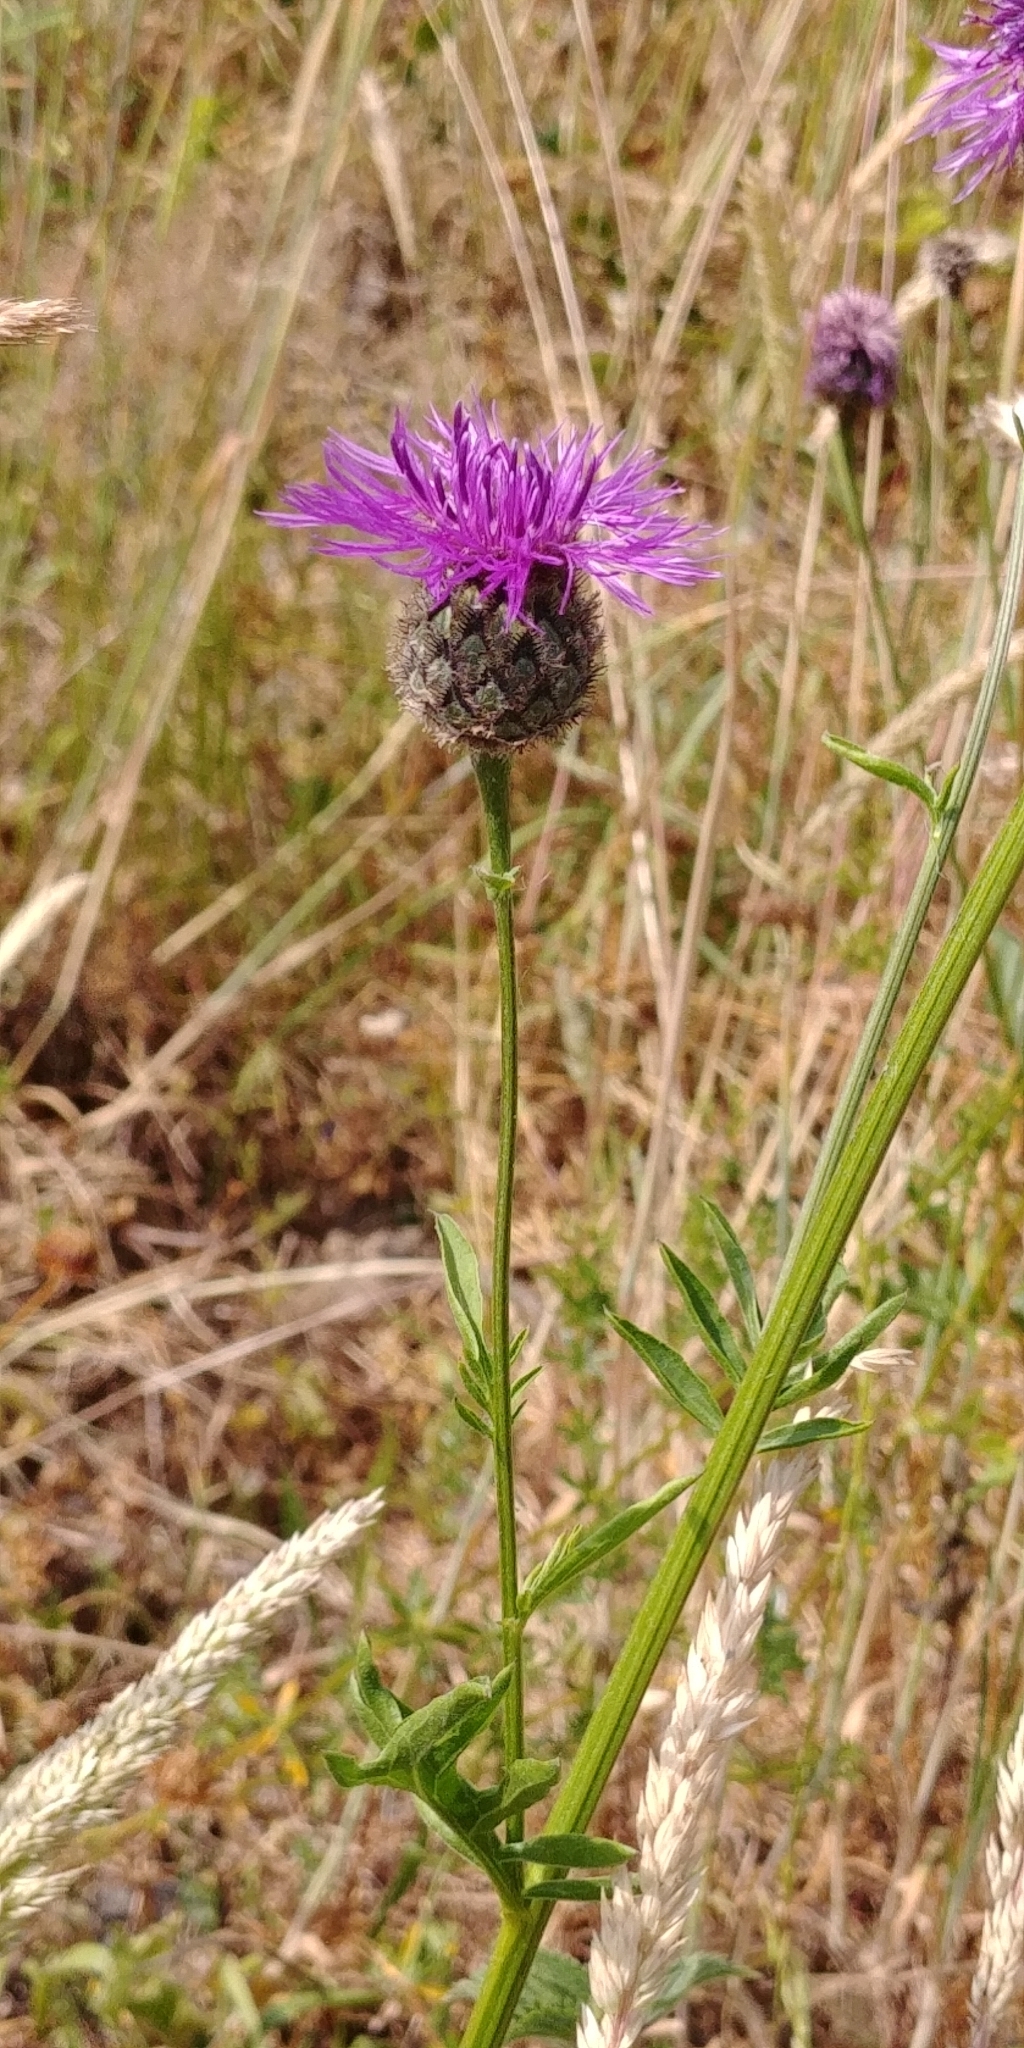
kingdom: Plantae
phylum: Tracheophyta
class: Magnoliopsida
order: Asterales
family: Asteraceae
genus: Centaurea
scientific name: Centaurea scabiosa
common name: Greater knapweed
